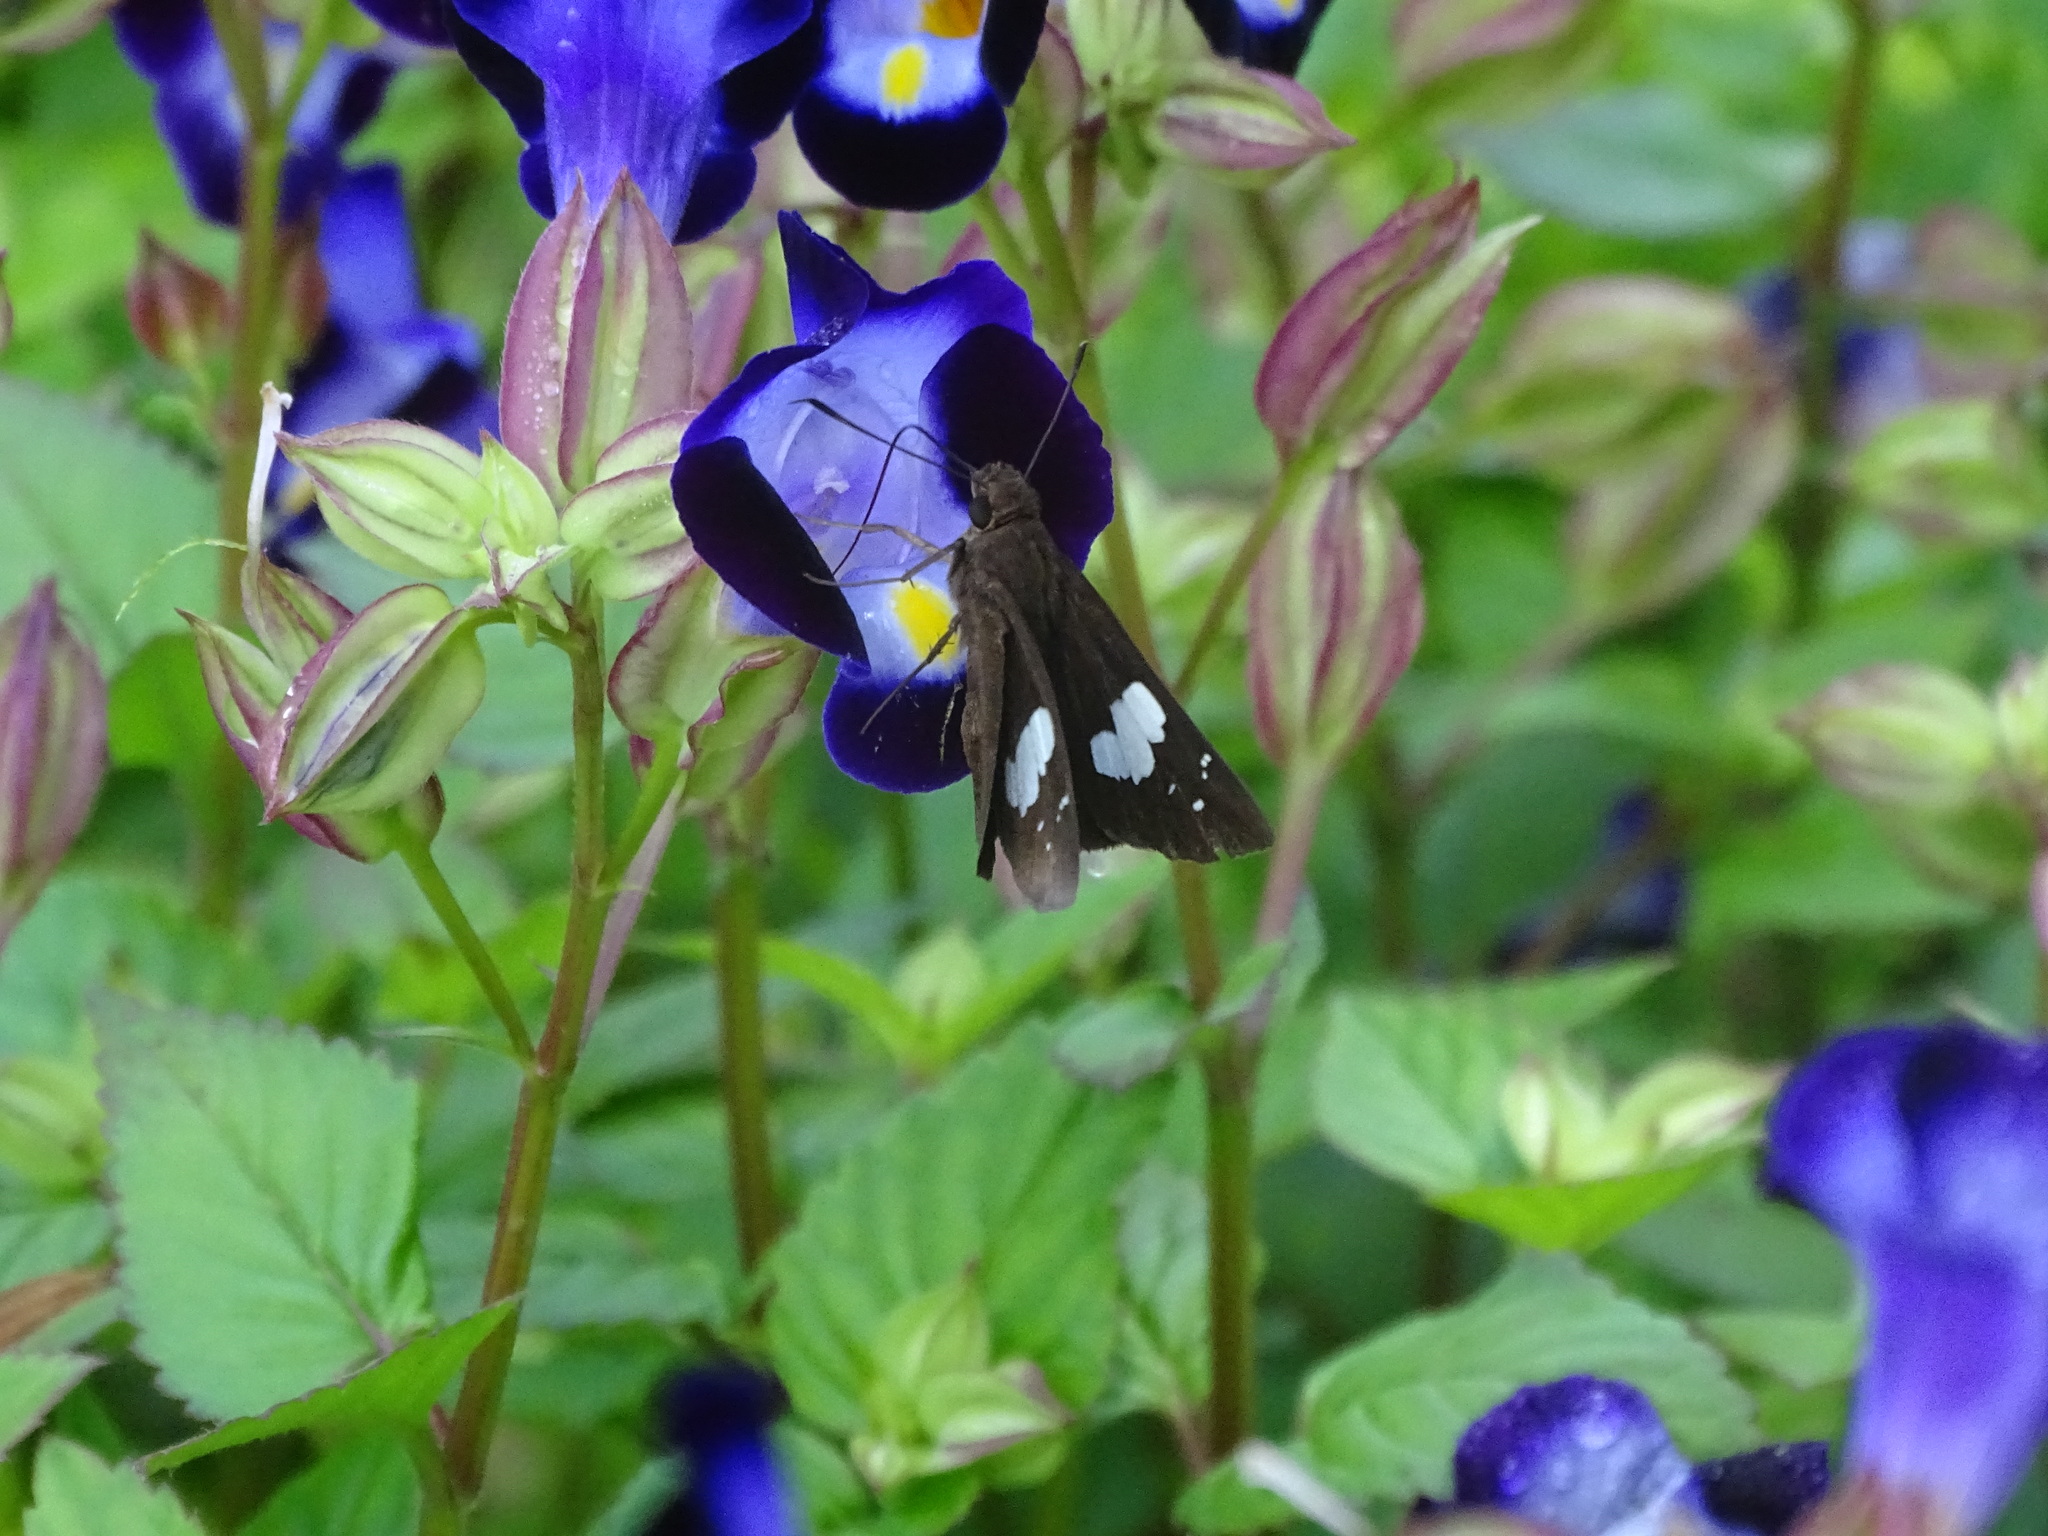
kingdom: Animalia
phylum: Arthropoda
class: Insecta
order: Lepidoptera
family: Hesperiidae
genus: Notocrypta
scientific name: Notocrypta curvifascia
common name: Restricted demon
